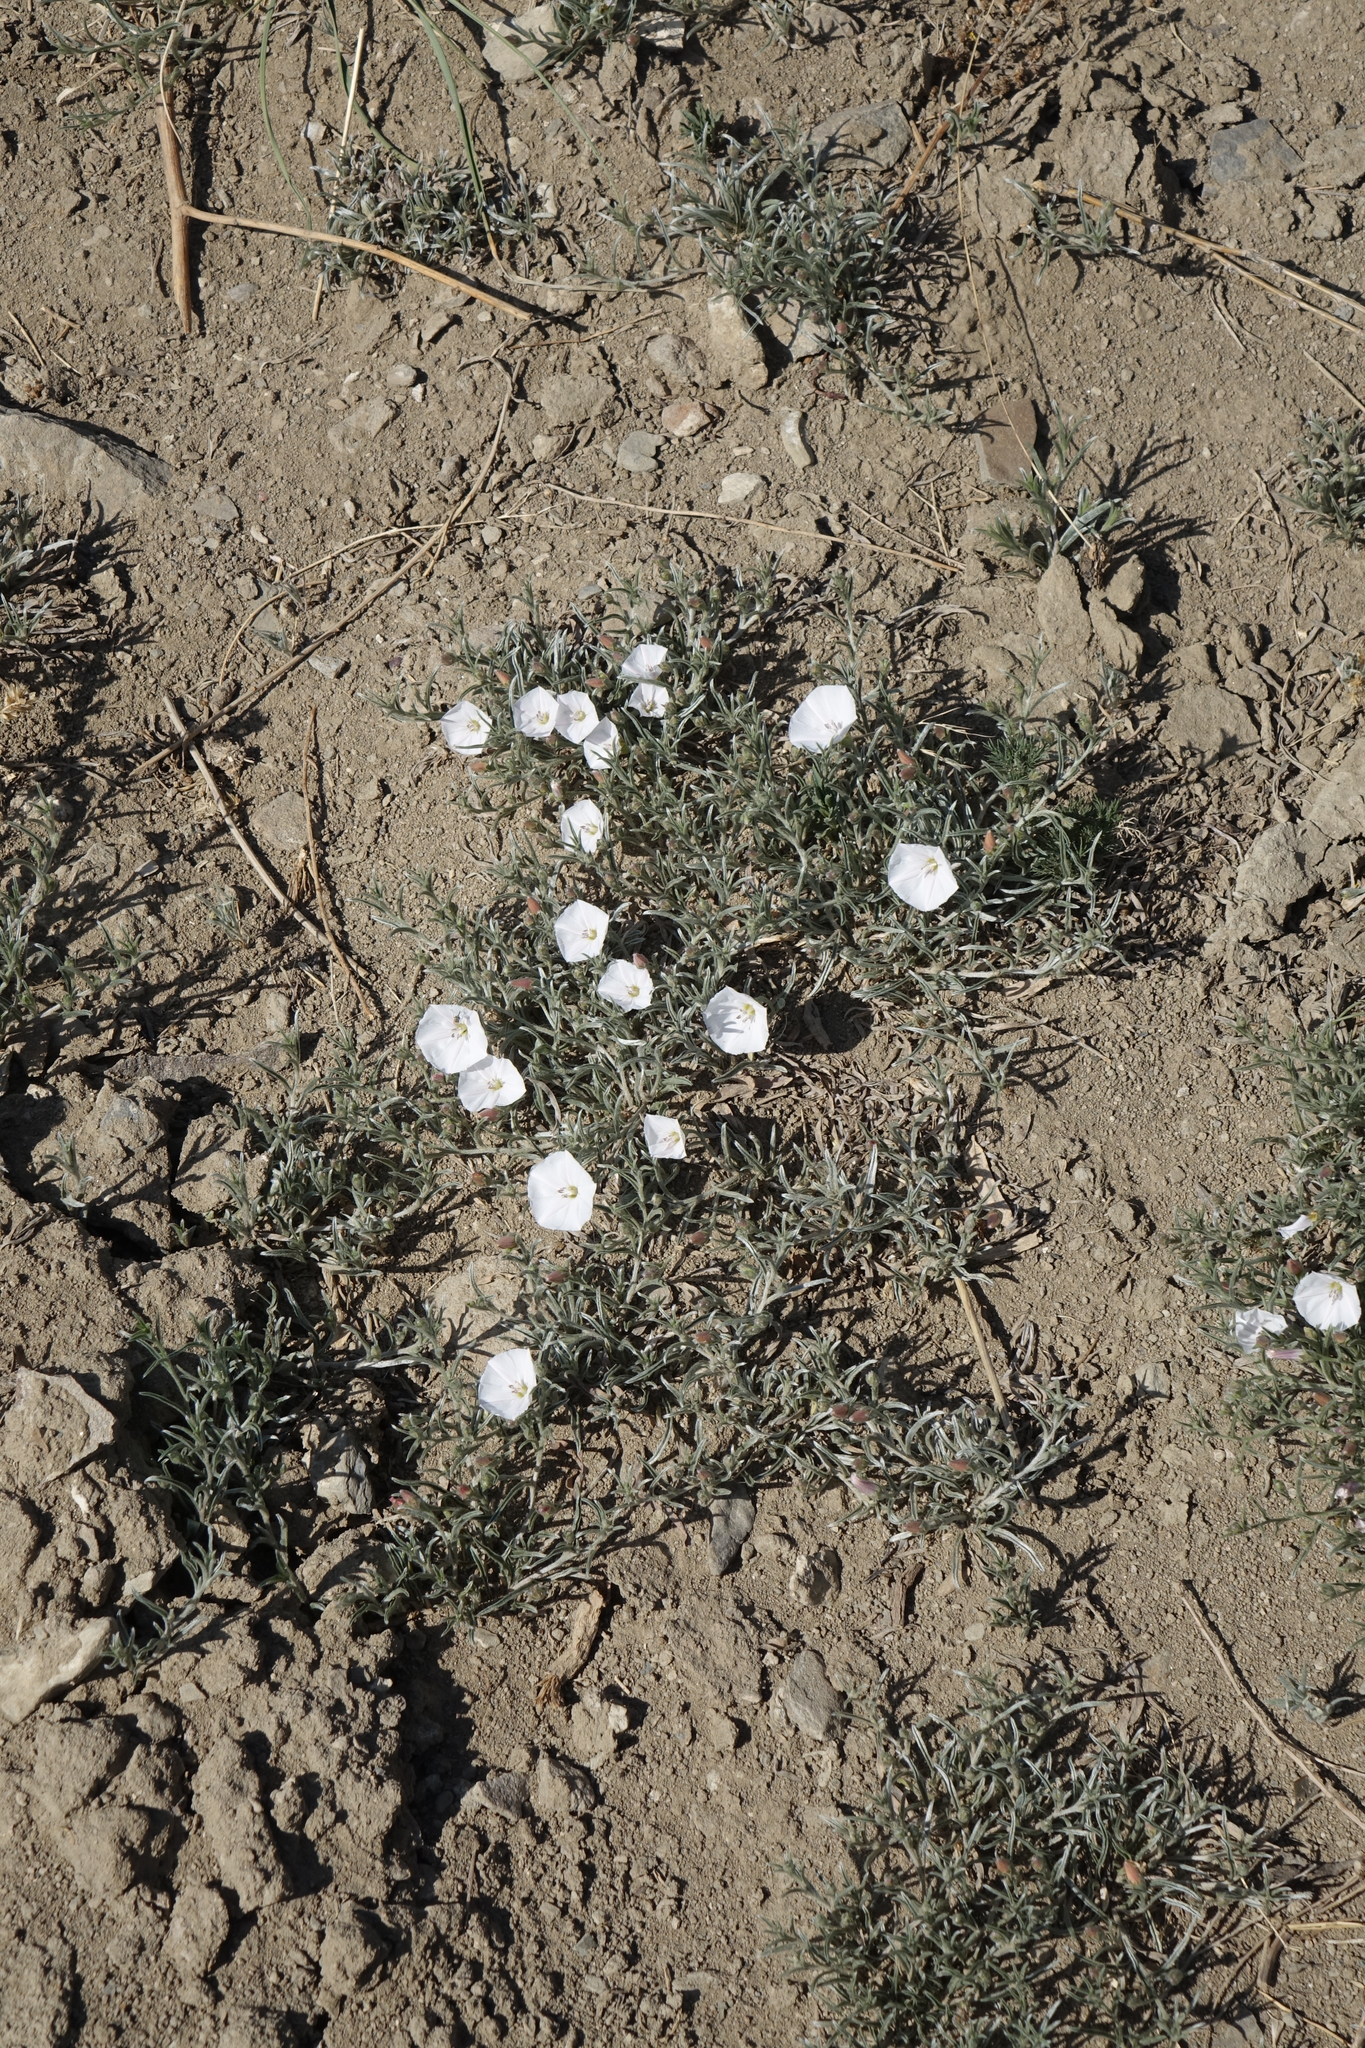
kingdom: Plantae
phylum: Tracheophyta
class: Magnoliopsida
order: Solanales
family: Convolvulaceae
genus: Convolvulus
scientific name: Convolvulus ammannii
